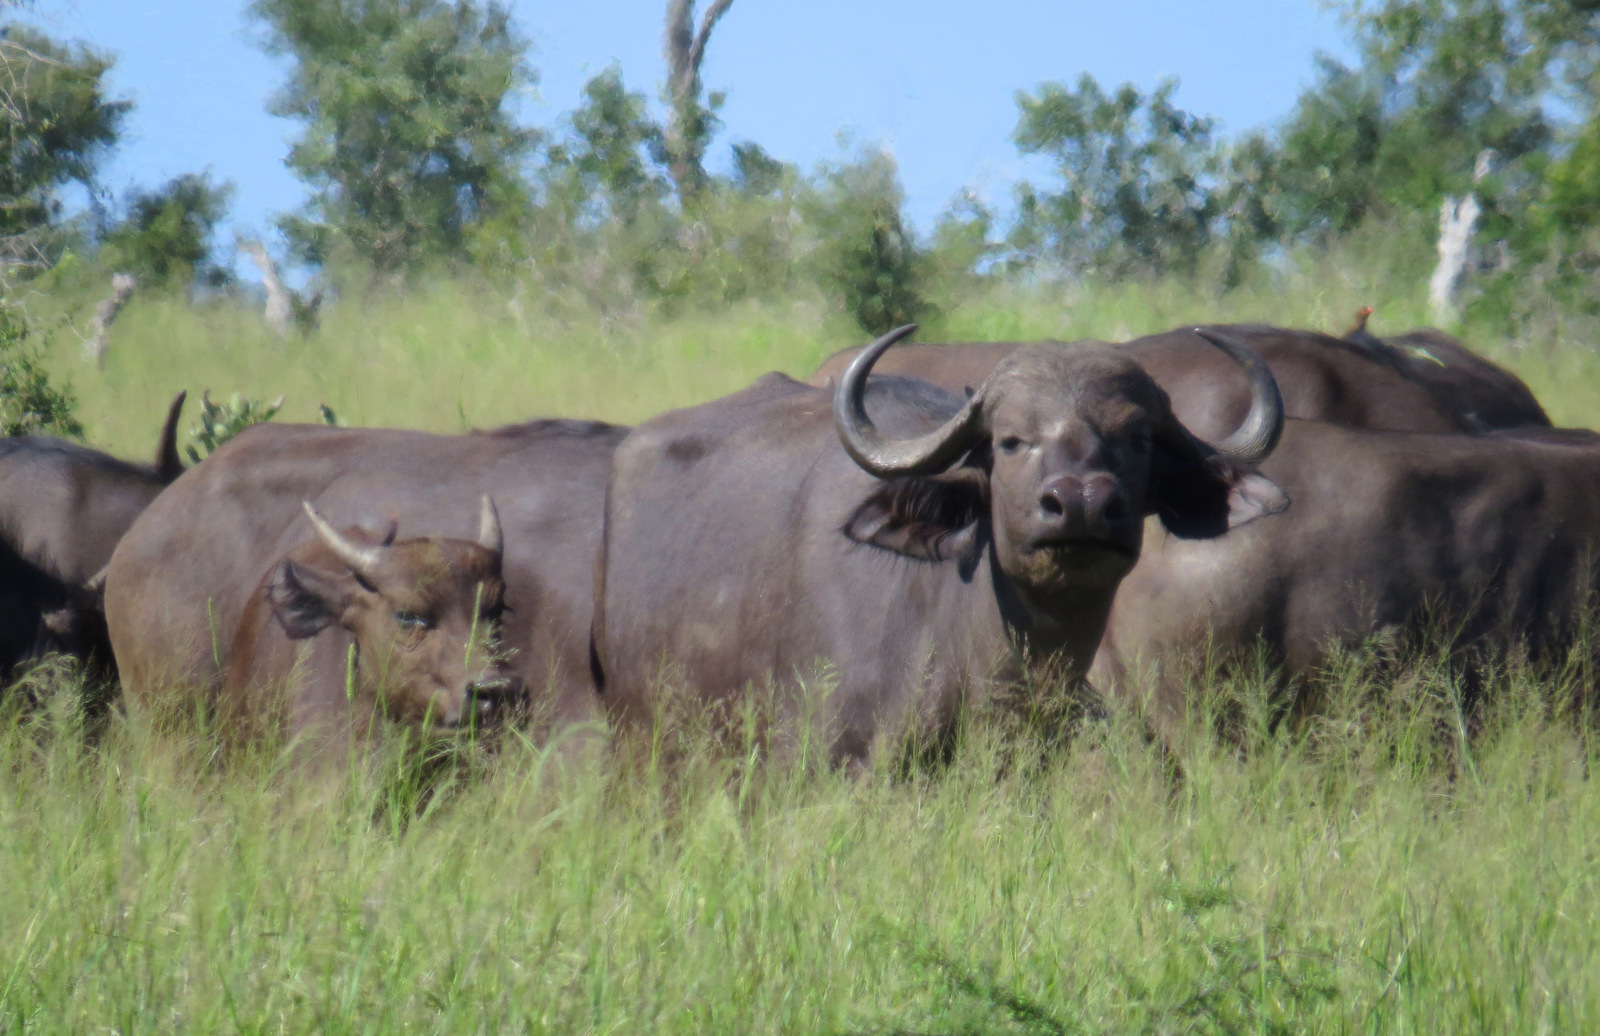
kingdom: Animalia
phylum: Chordata
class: Mammalia
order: Artiodactyla
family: Bovidae
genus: Syncerus
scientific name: Syncerus caffer
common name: African buffalo
